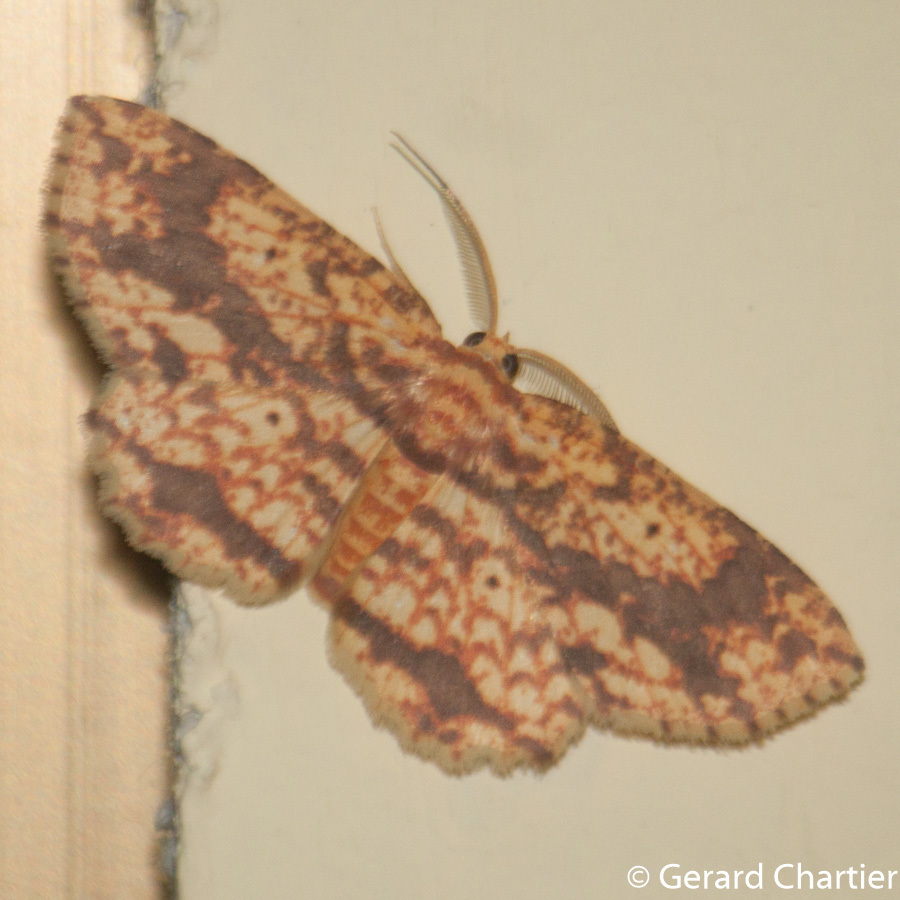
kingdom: Animalia
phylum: Arthropoda
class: Insecta
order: Lepidoptera
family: Geometridae
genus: Yashmakia
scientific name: Yashmakia suffusa
